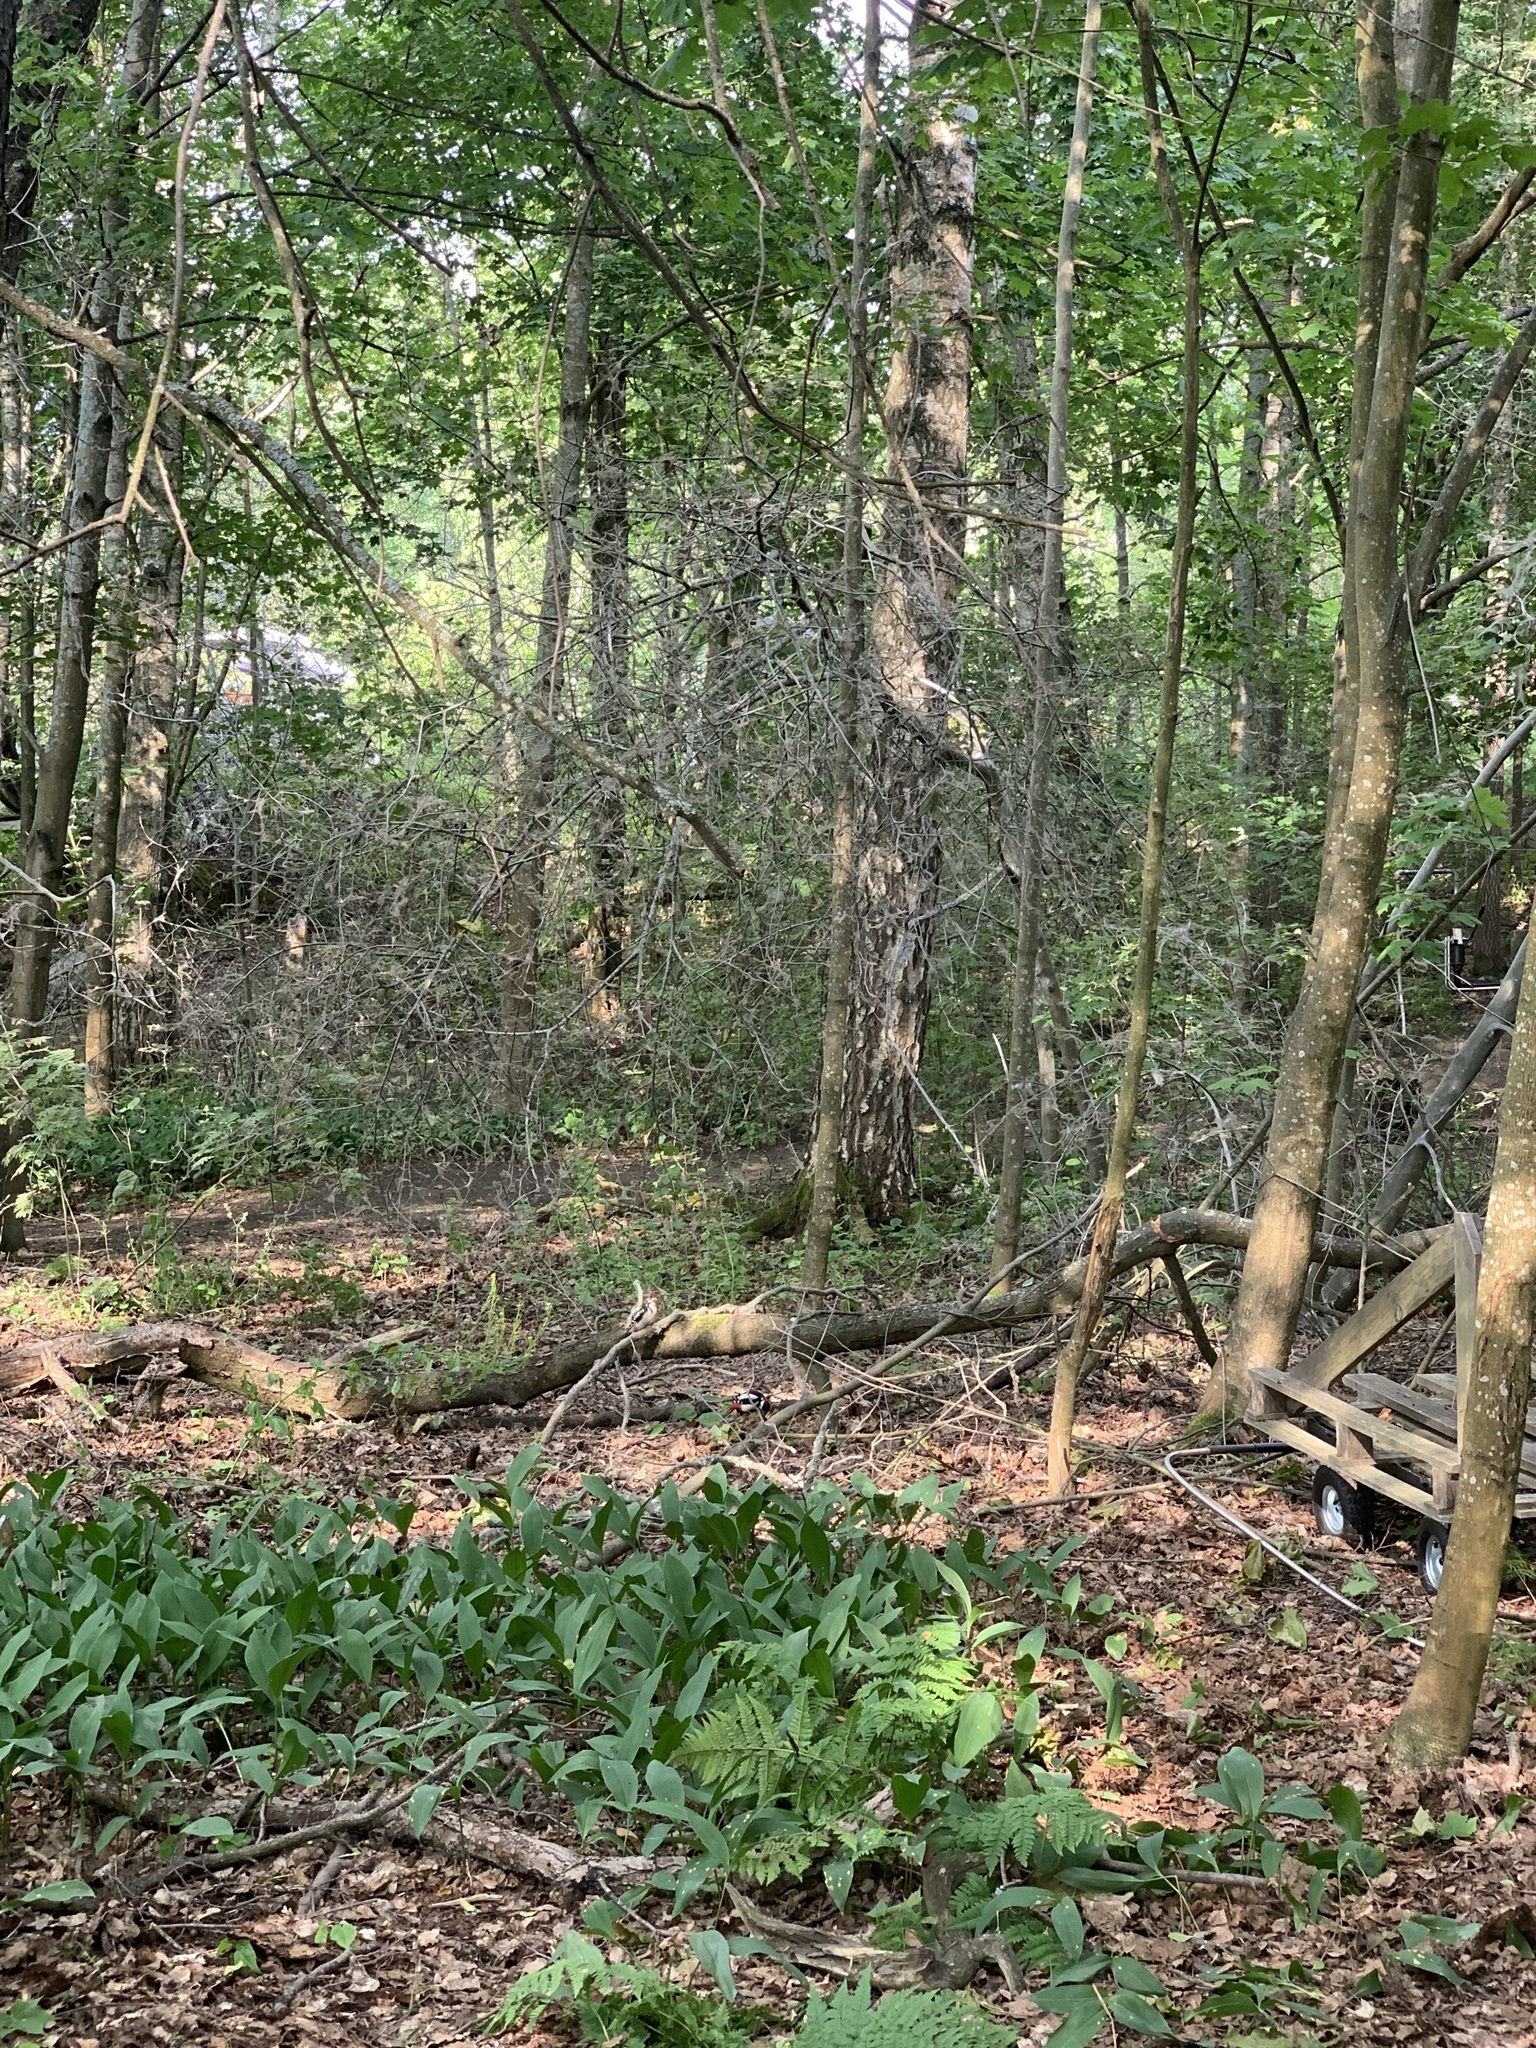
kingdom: Animalia
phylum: Chordata
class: Aves
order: Piciformes
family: Picidae
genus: Dendrocopos
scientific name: Dendrocopos major
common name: Great spotted woodpecker
